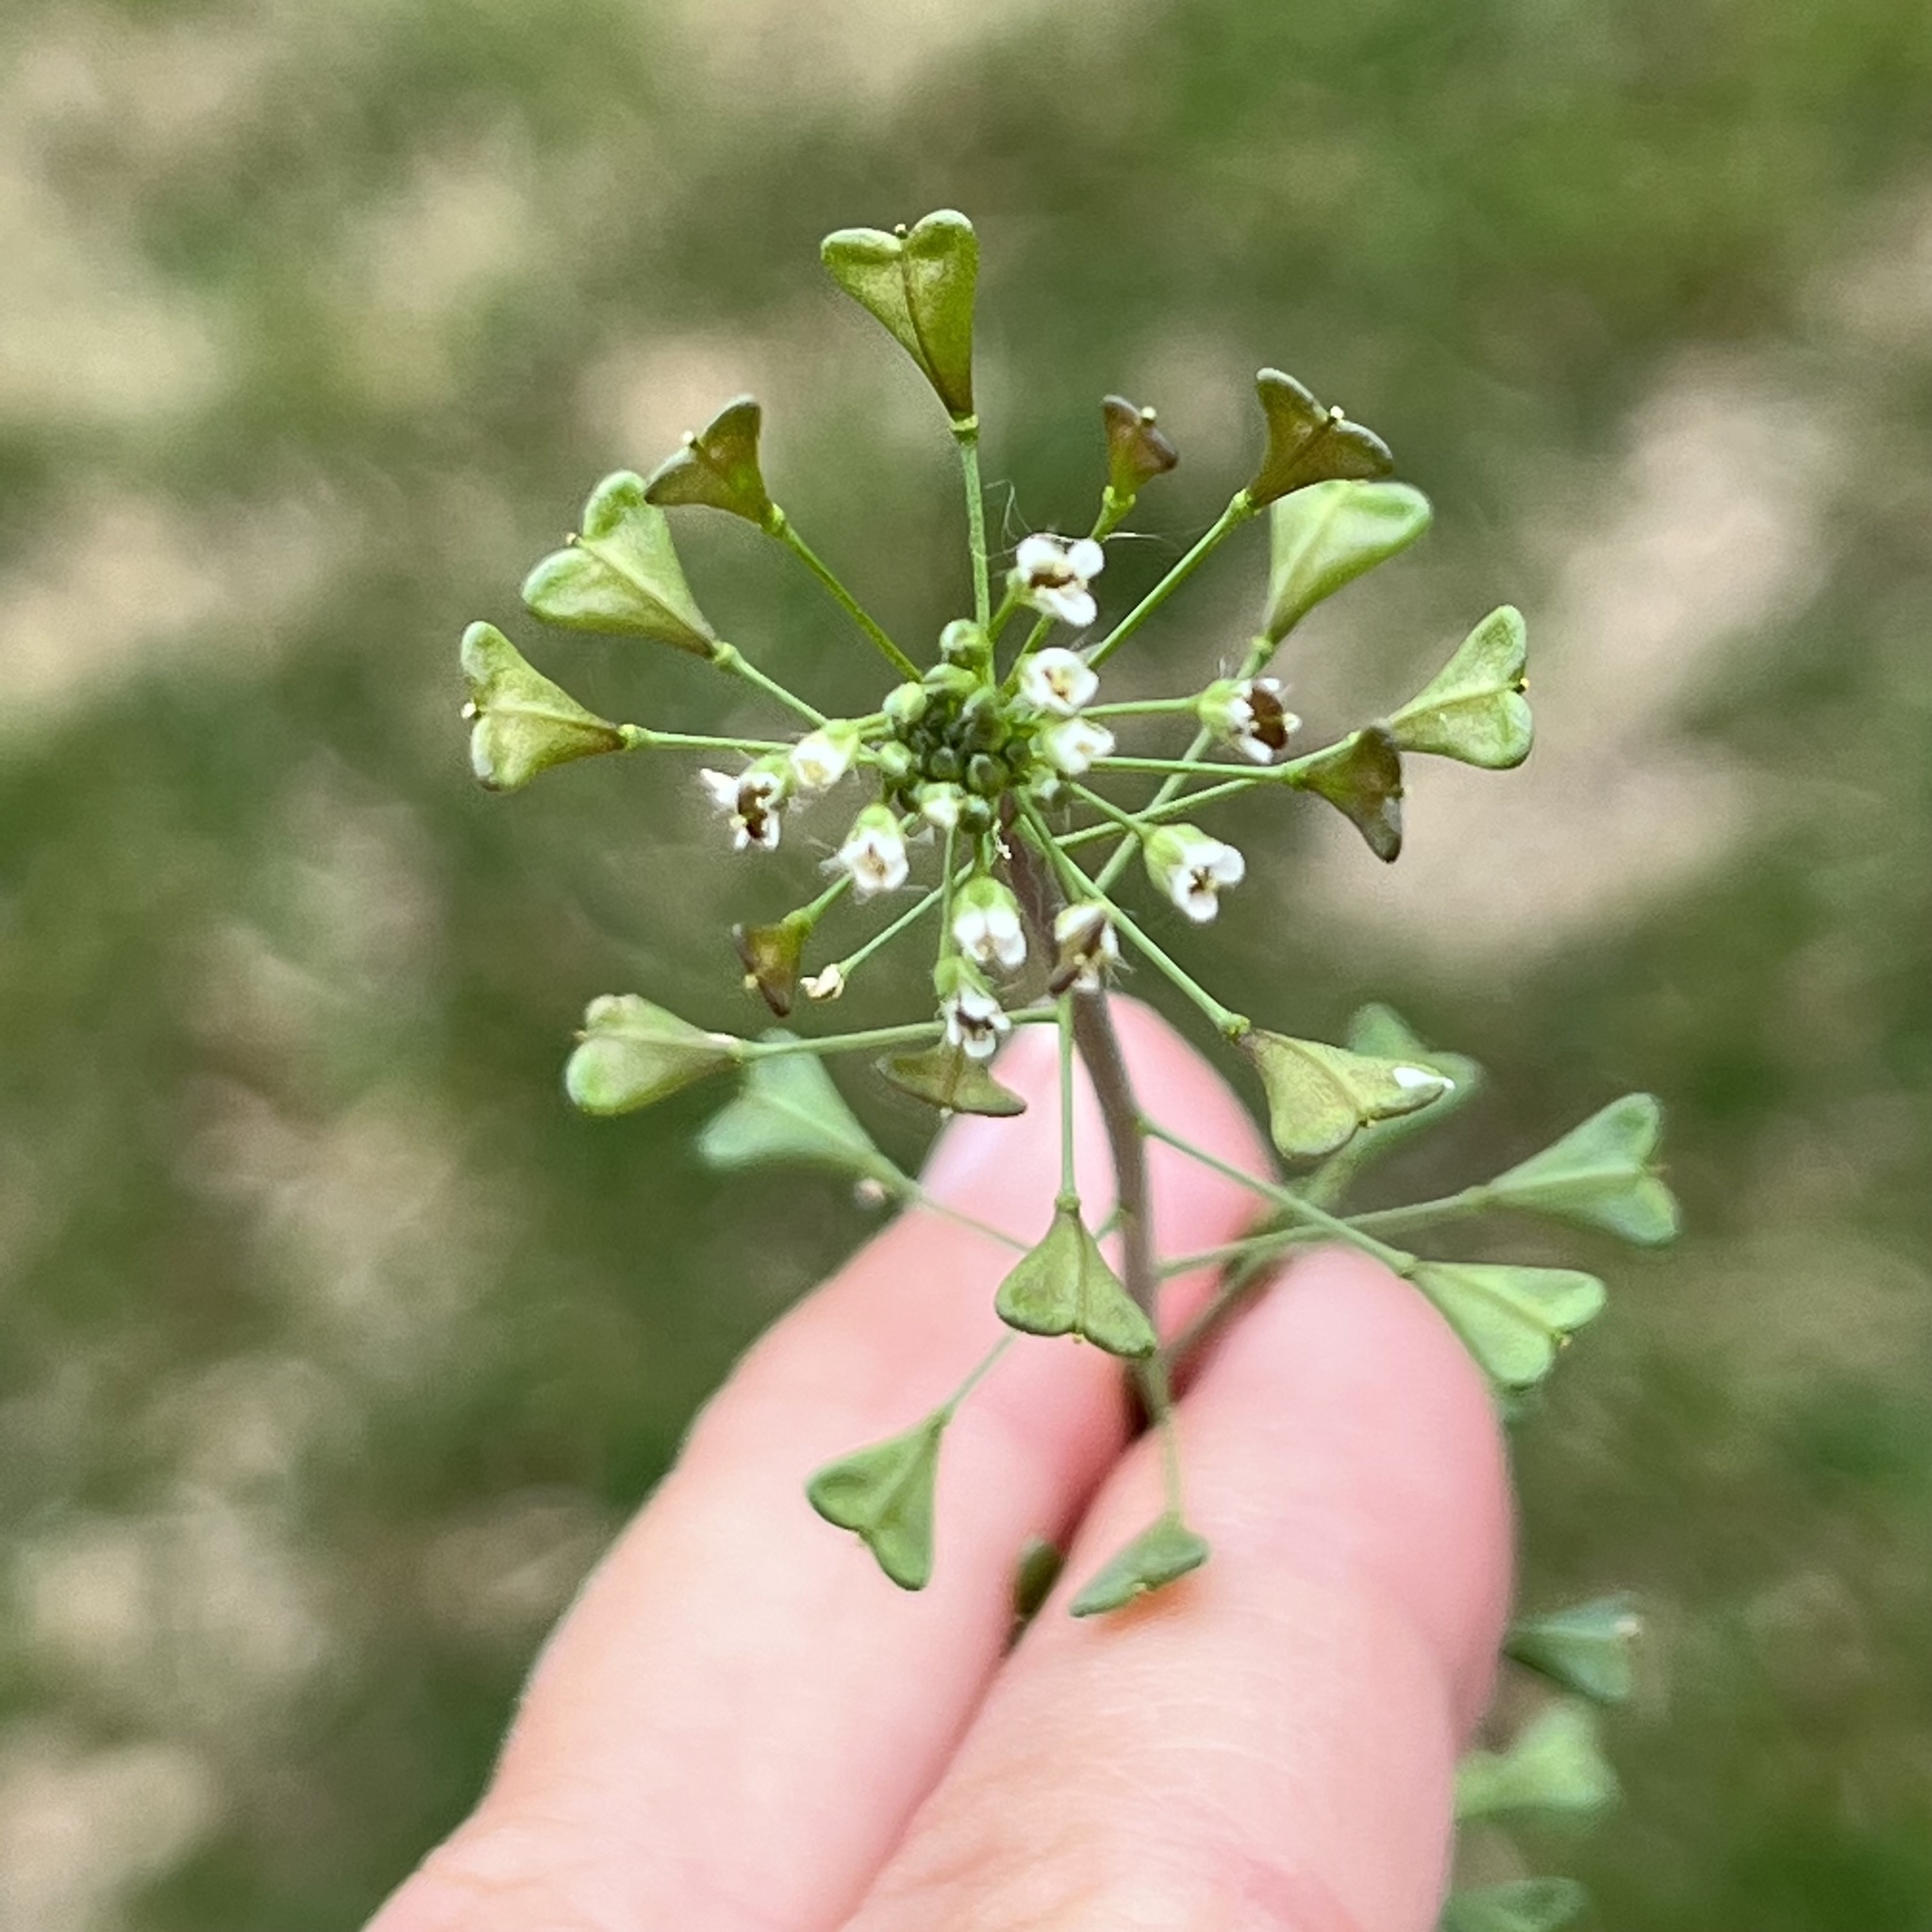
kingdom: Plantae
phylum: Tracheophyta
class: Magnoliopsida
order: Brassicales
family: Brassicaceae
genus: Capsella
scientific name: Capsella bursa-pastoris
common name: Shepherd's purse
